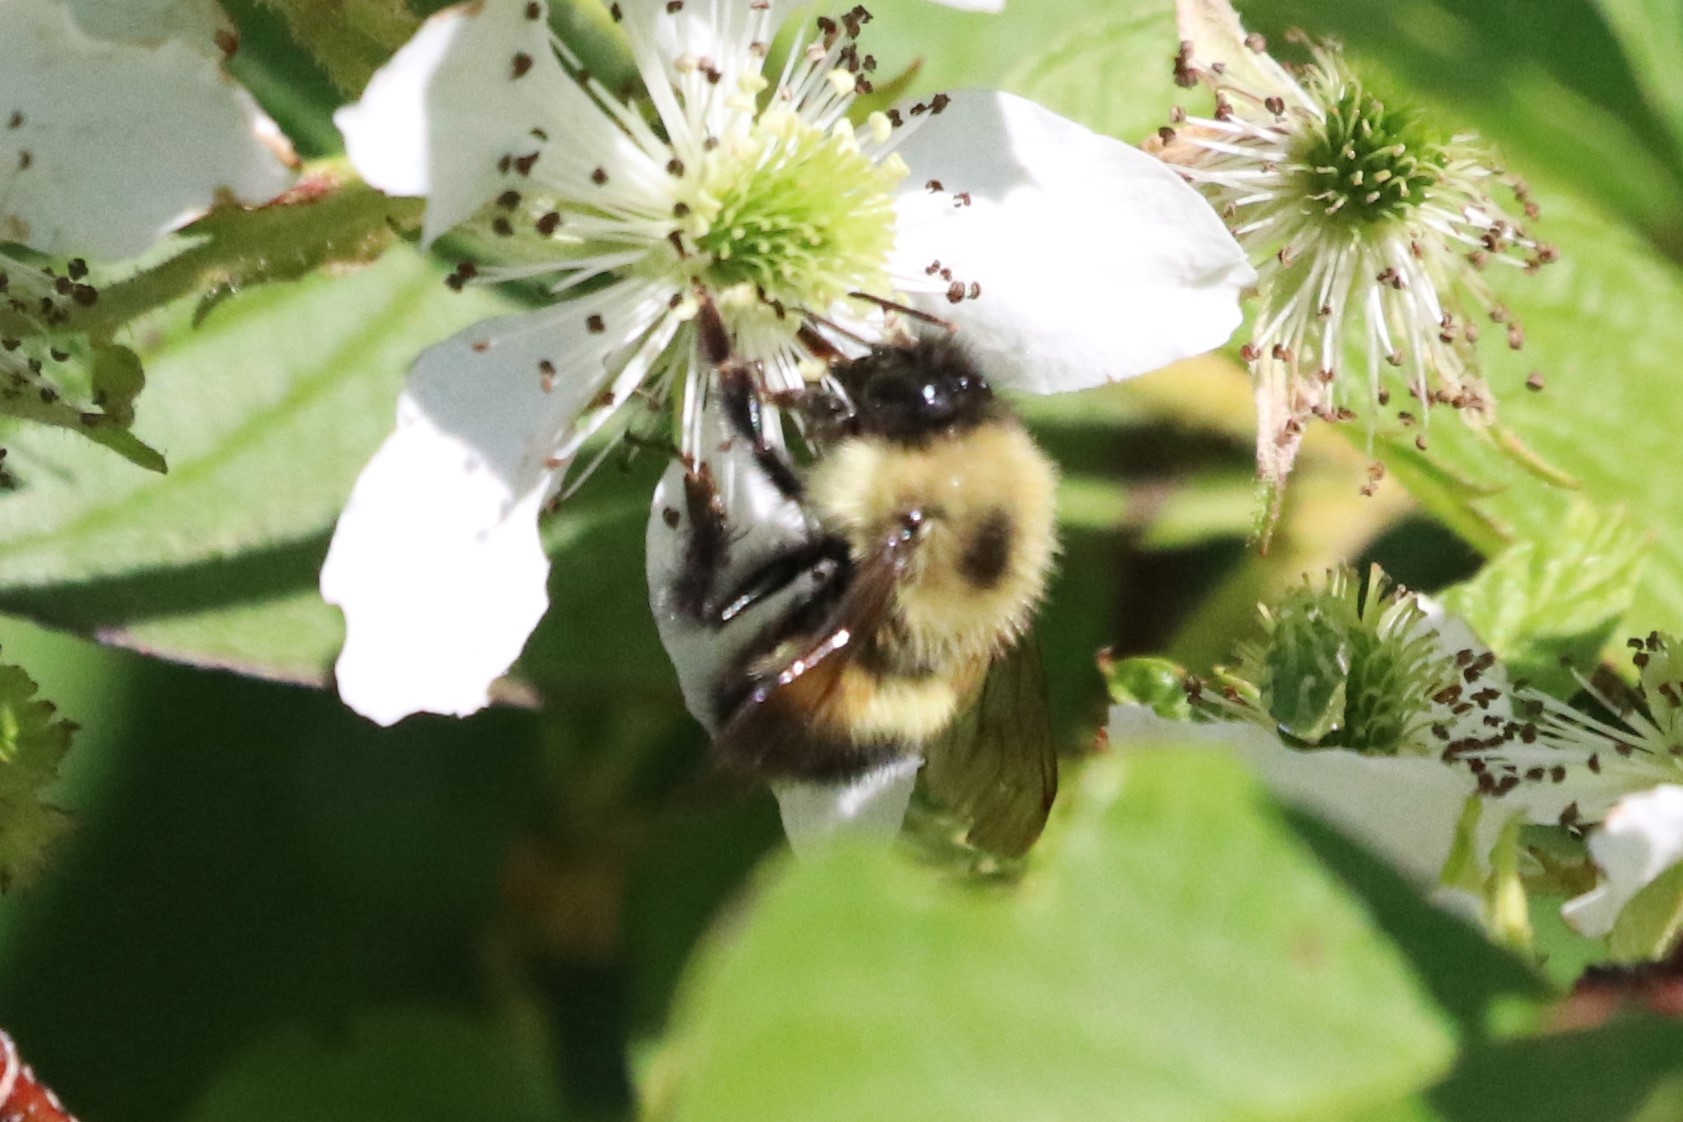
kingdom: Animalia
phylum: Arthropoda
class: Insecta
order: Hymenoptera
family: Apidae
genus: Pyrobombus
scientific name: Pyrobombus
